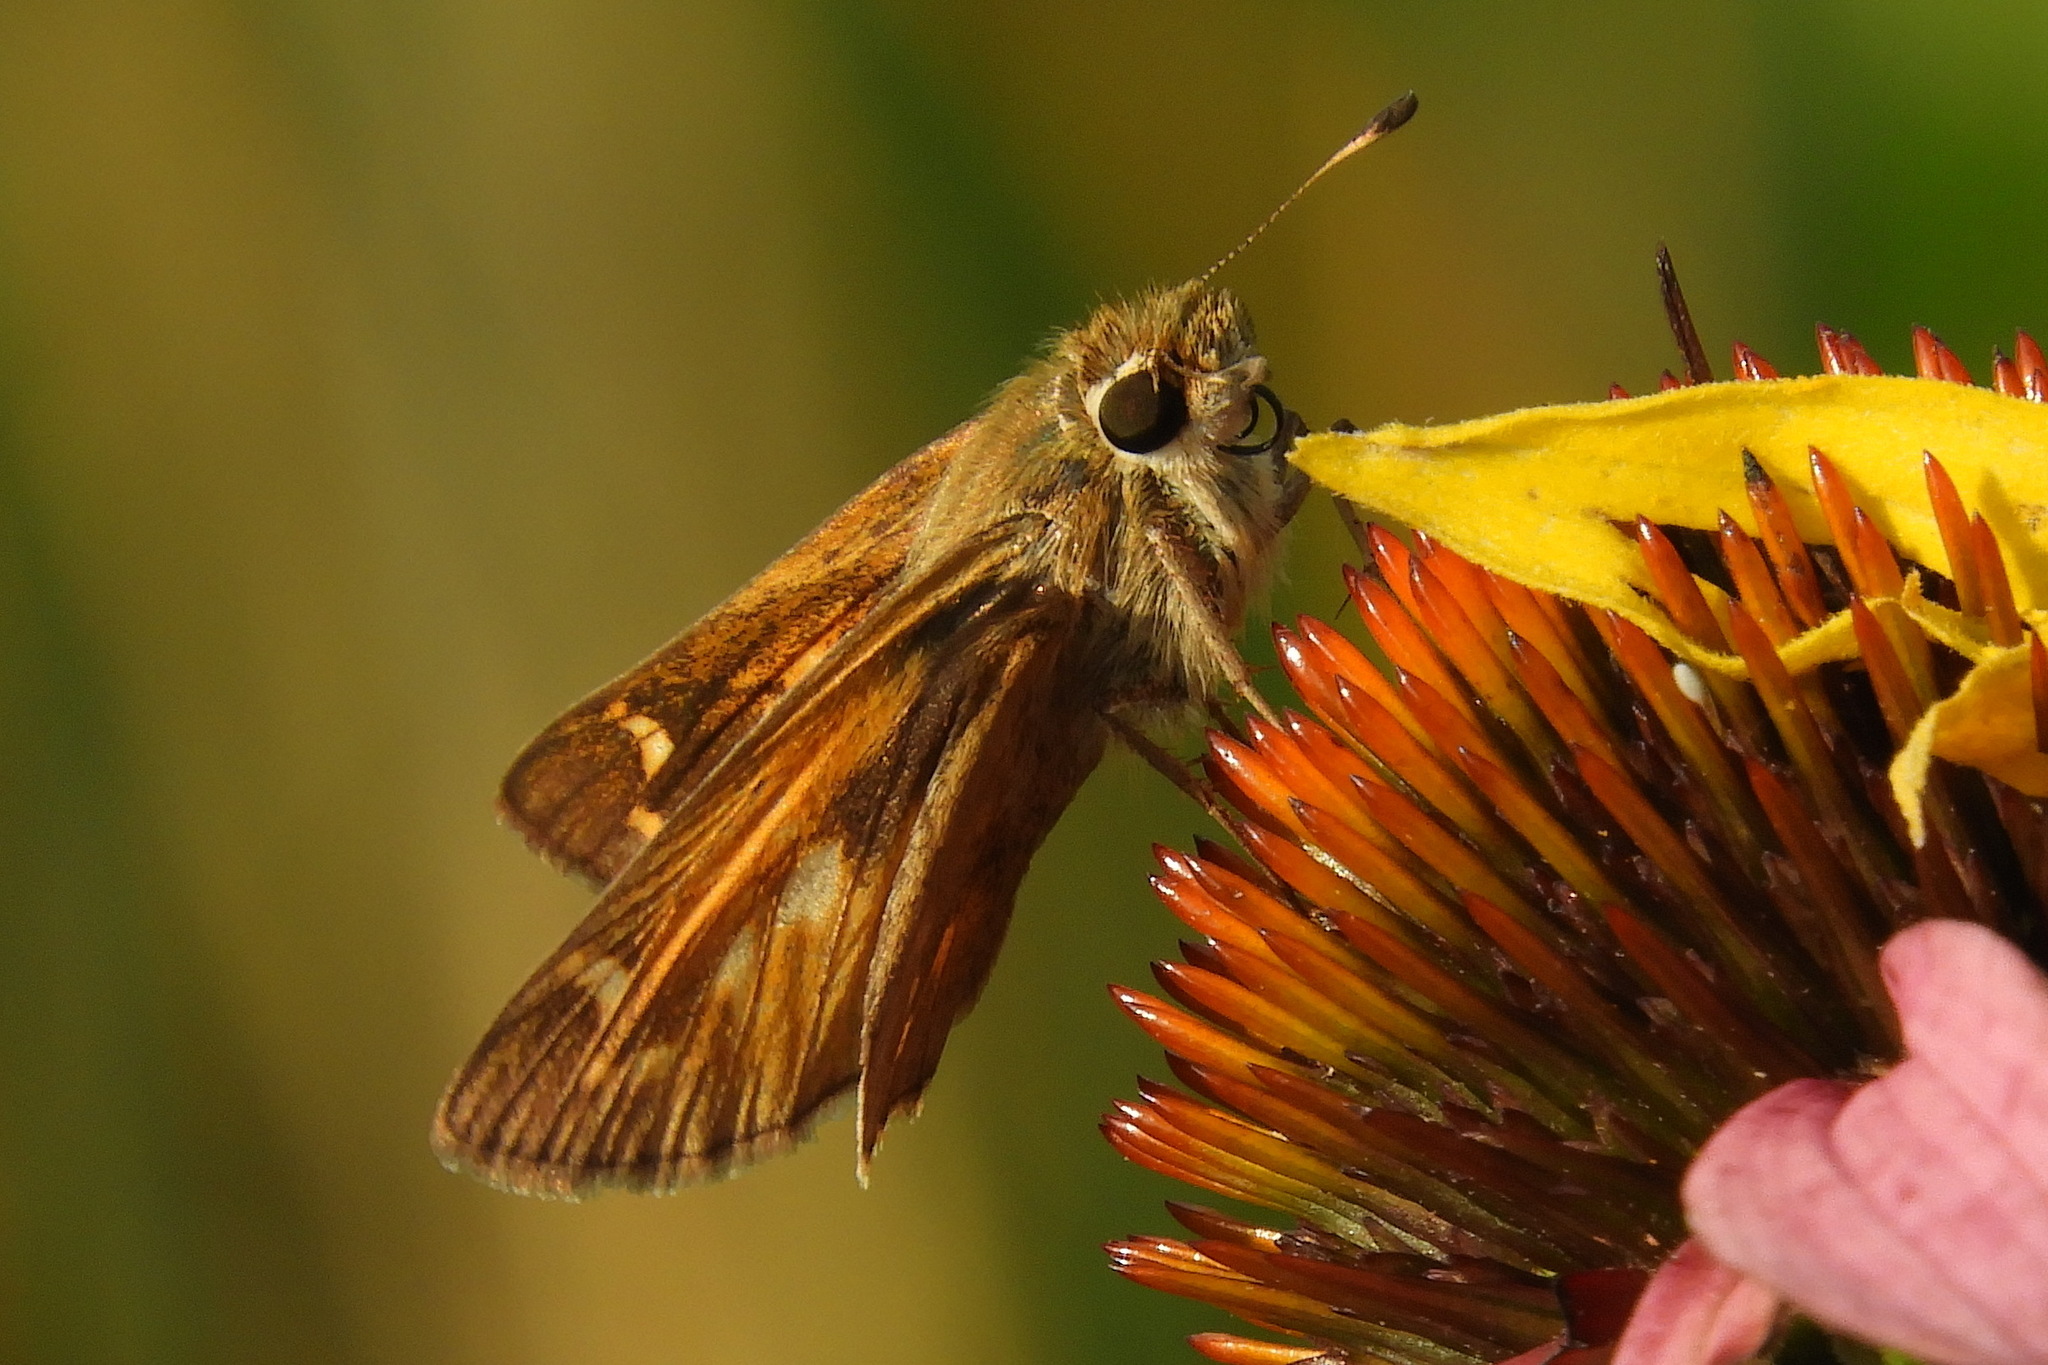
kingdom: Animalia
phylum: Arthropoda
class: Insecta
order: Lepidoptera
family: Hesperiidae
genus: Atalopedes
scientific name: Atalopedes
